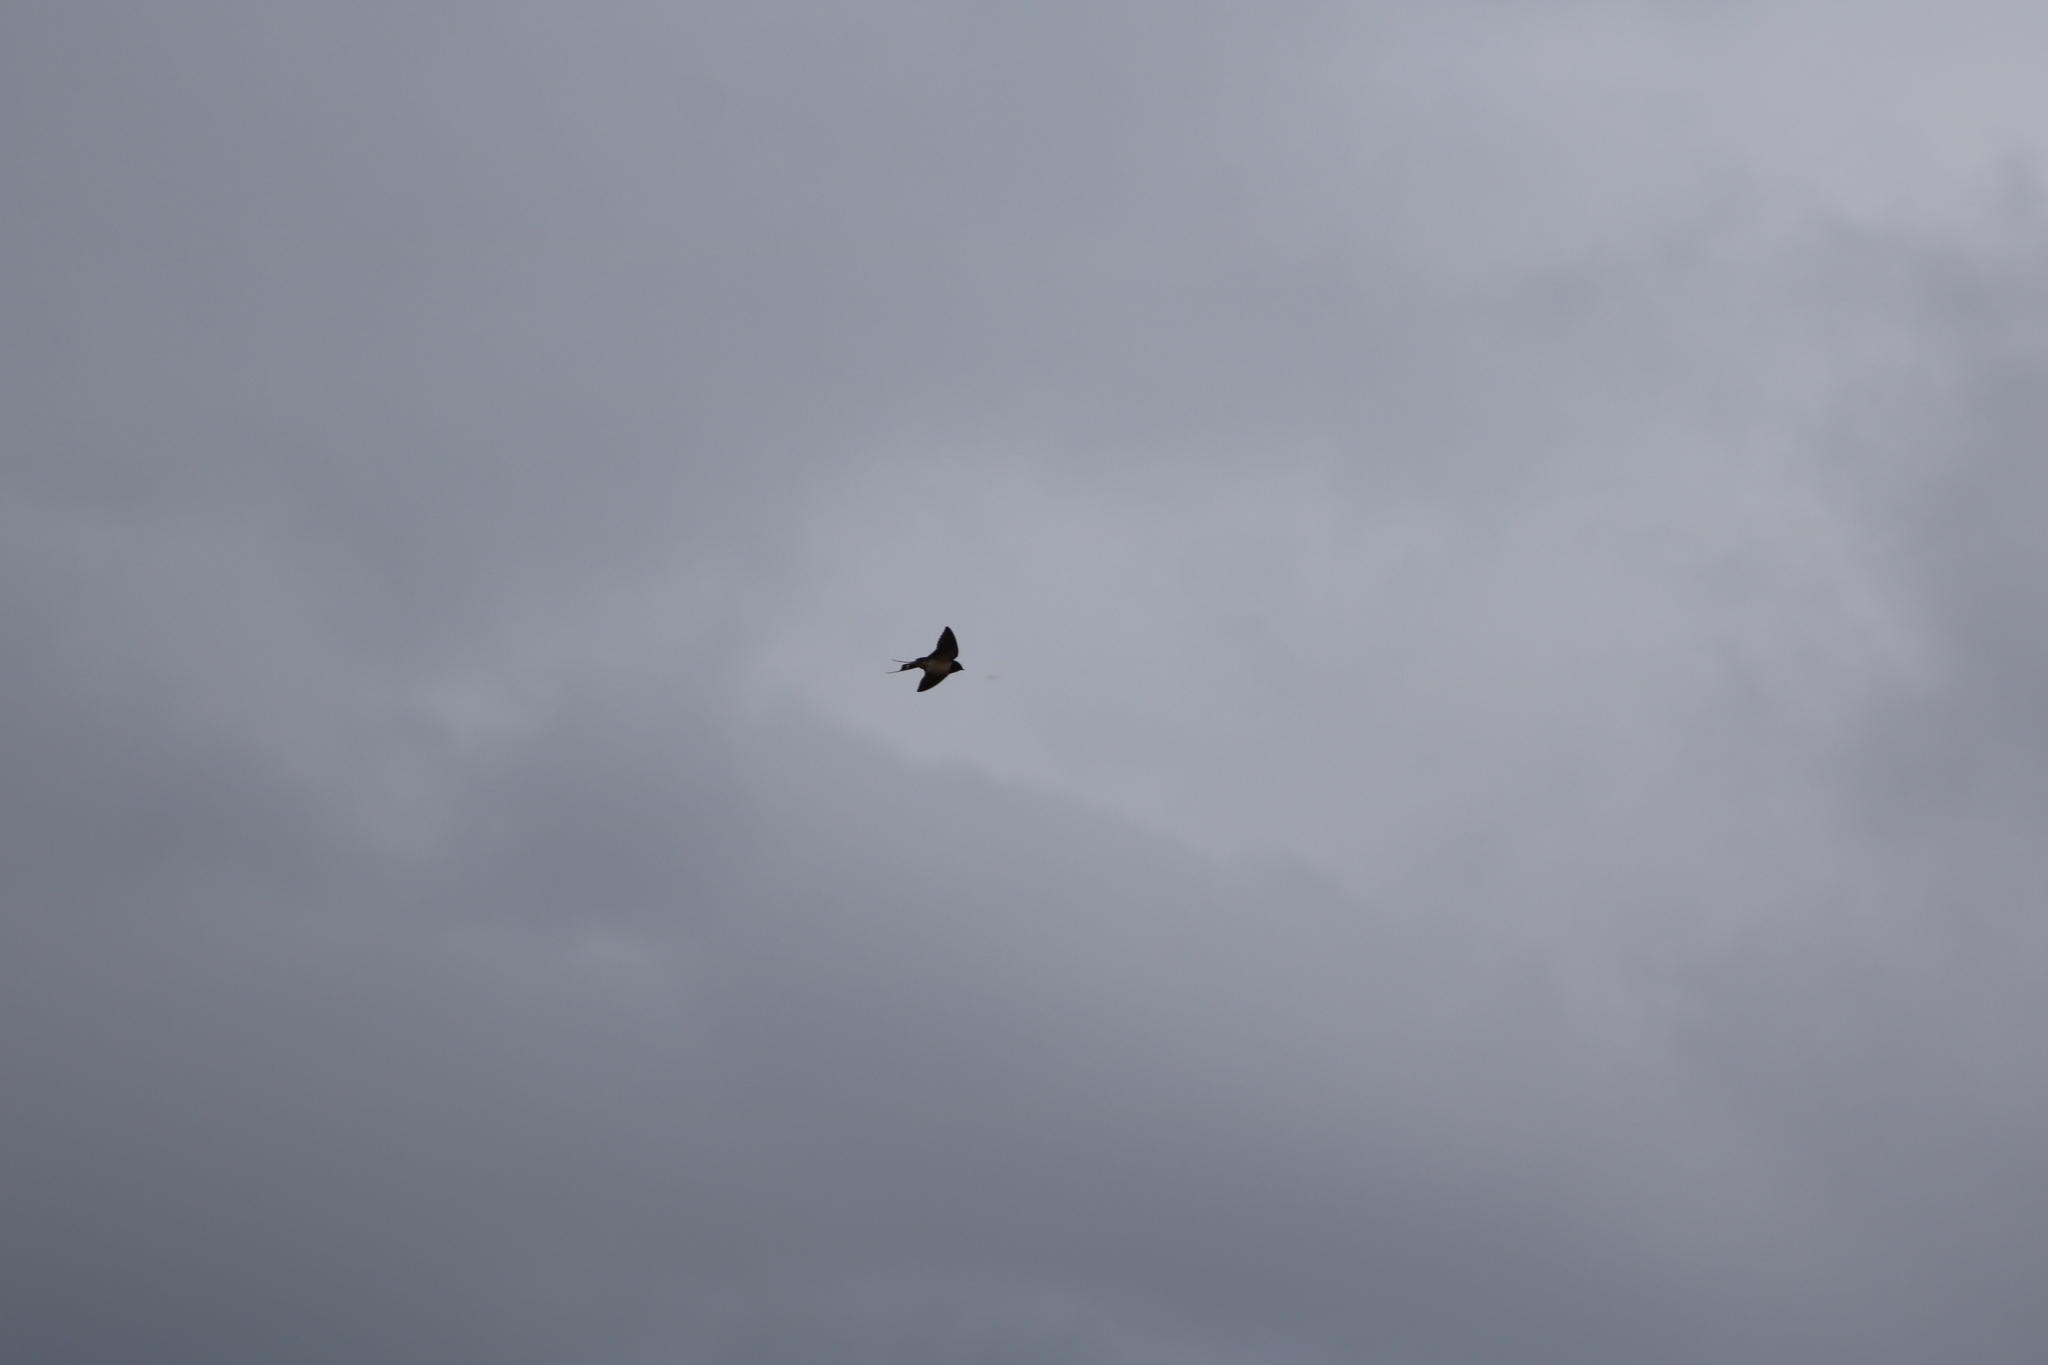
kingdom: Animalia
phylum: Chordata
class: Aves
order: Passeriformes
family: Hirundinidae
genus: Hirundo
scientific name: Hirundo rustica
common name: Barn swallow
